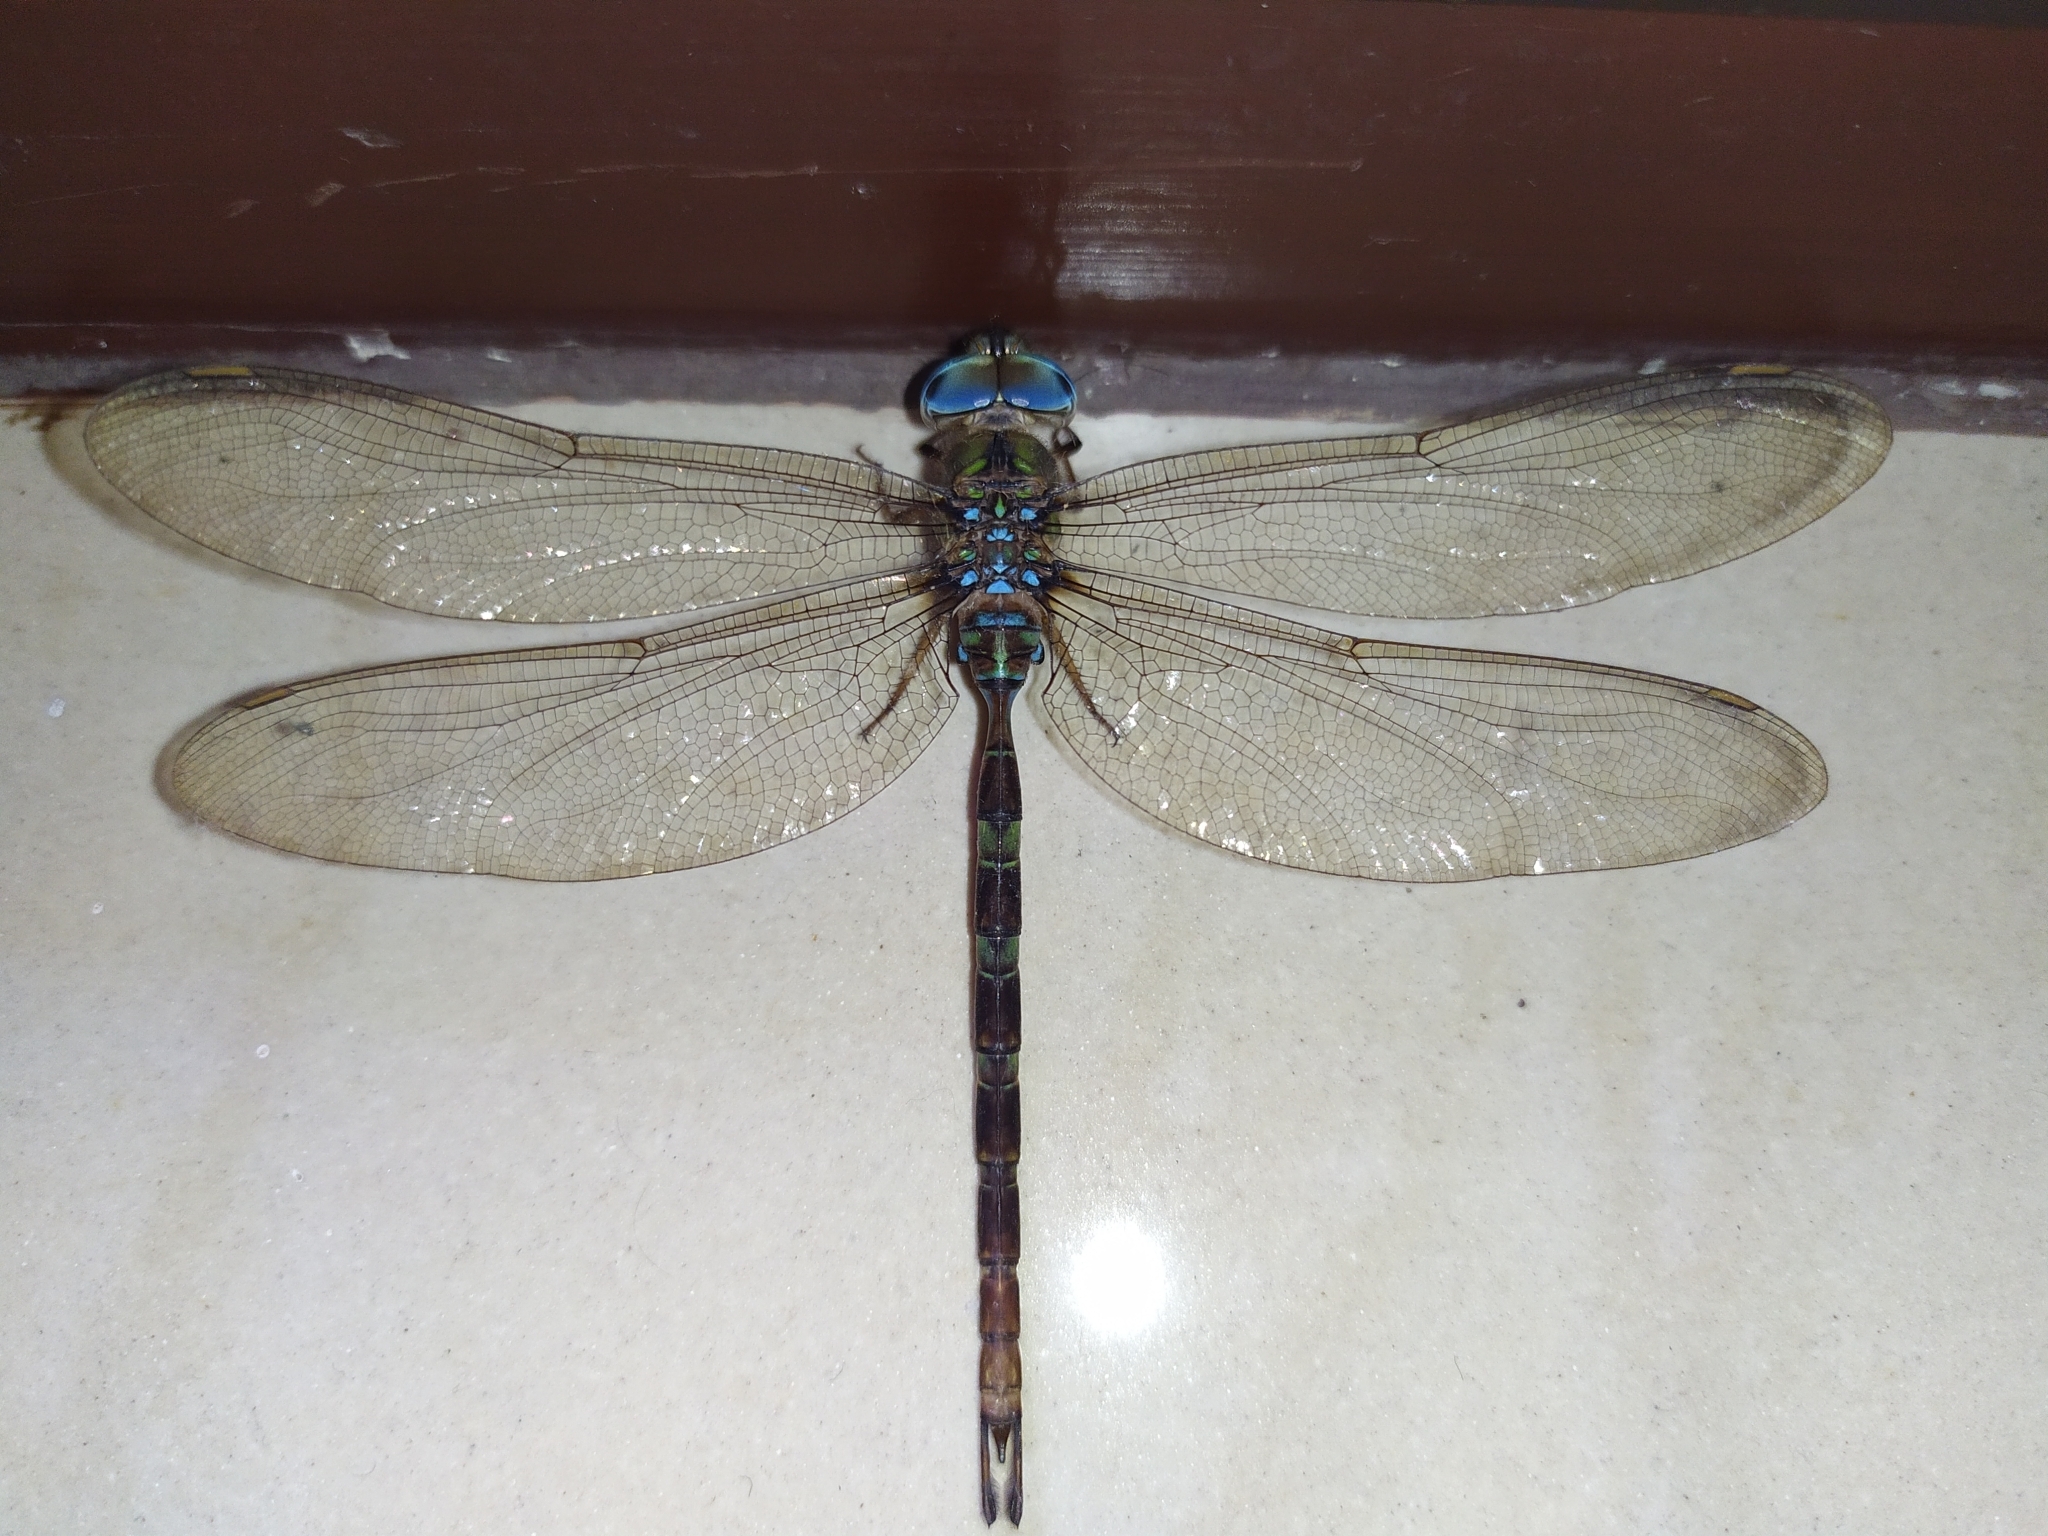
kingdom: Animalia
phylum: Arthropoda
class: Insecta
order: Odonata
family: Aeshnidae
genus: Gynacantha
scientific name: Gynacantha dravida
